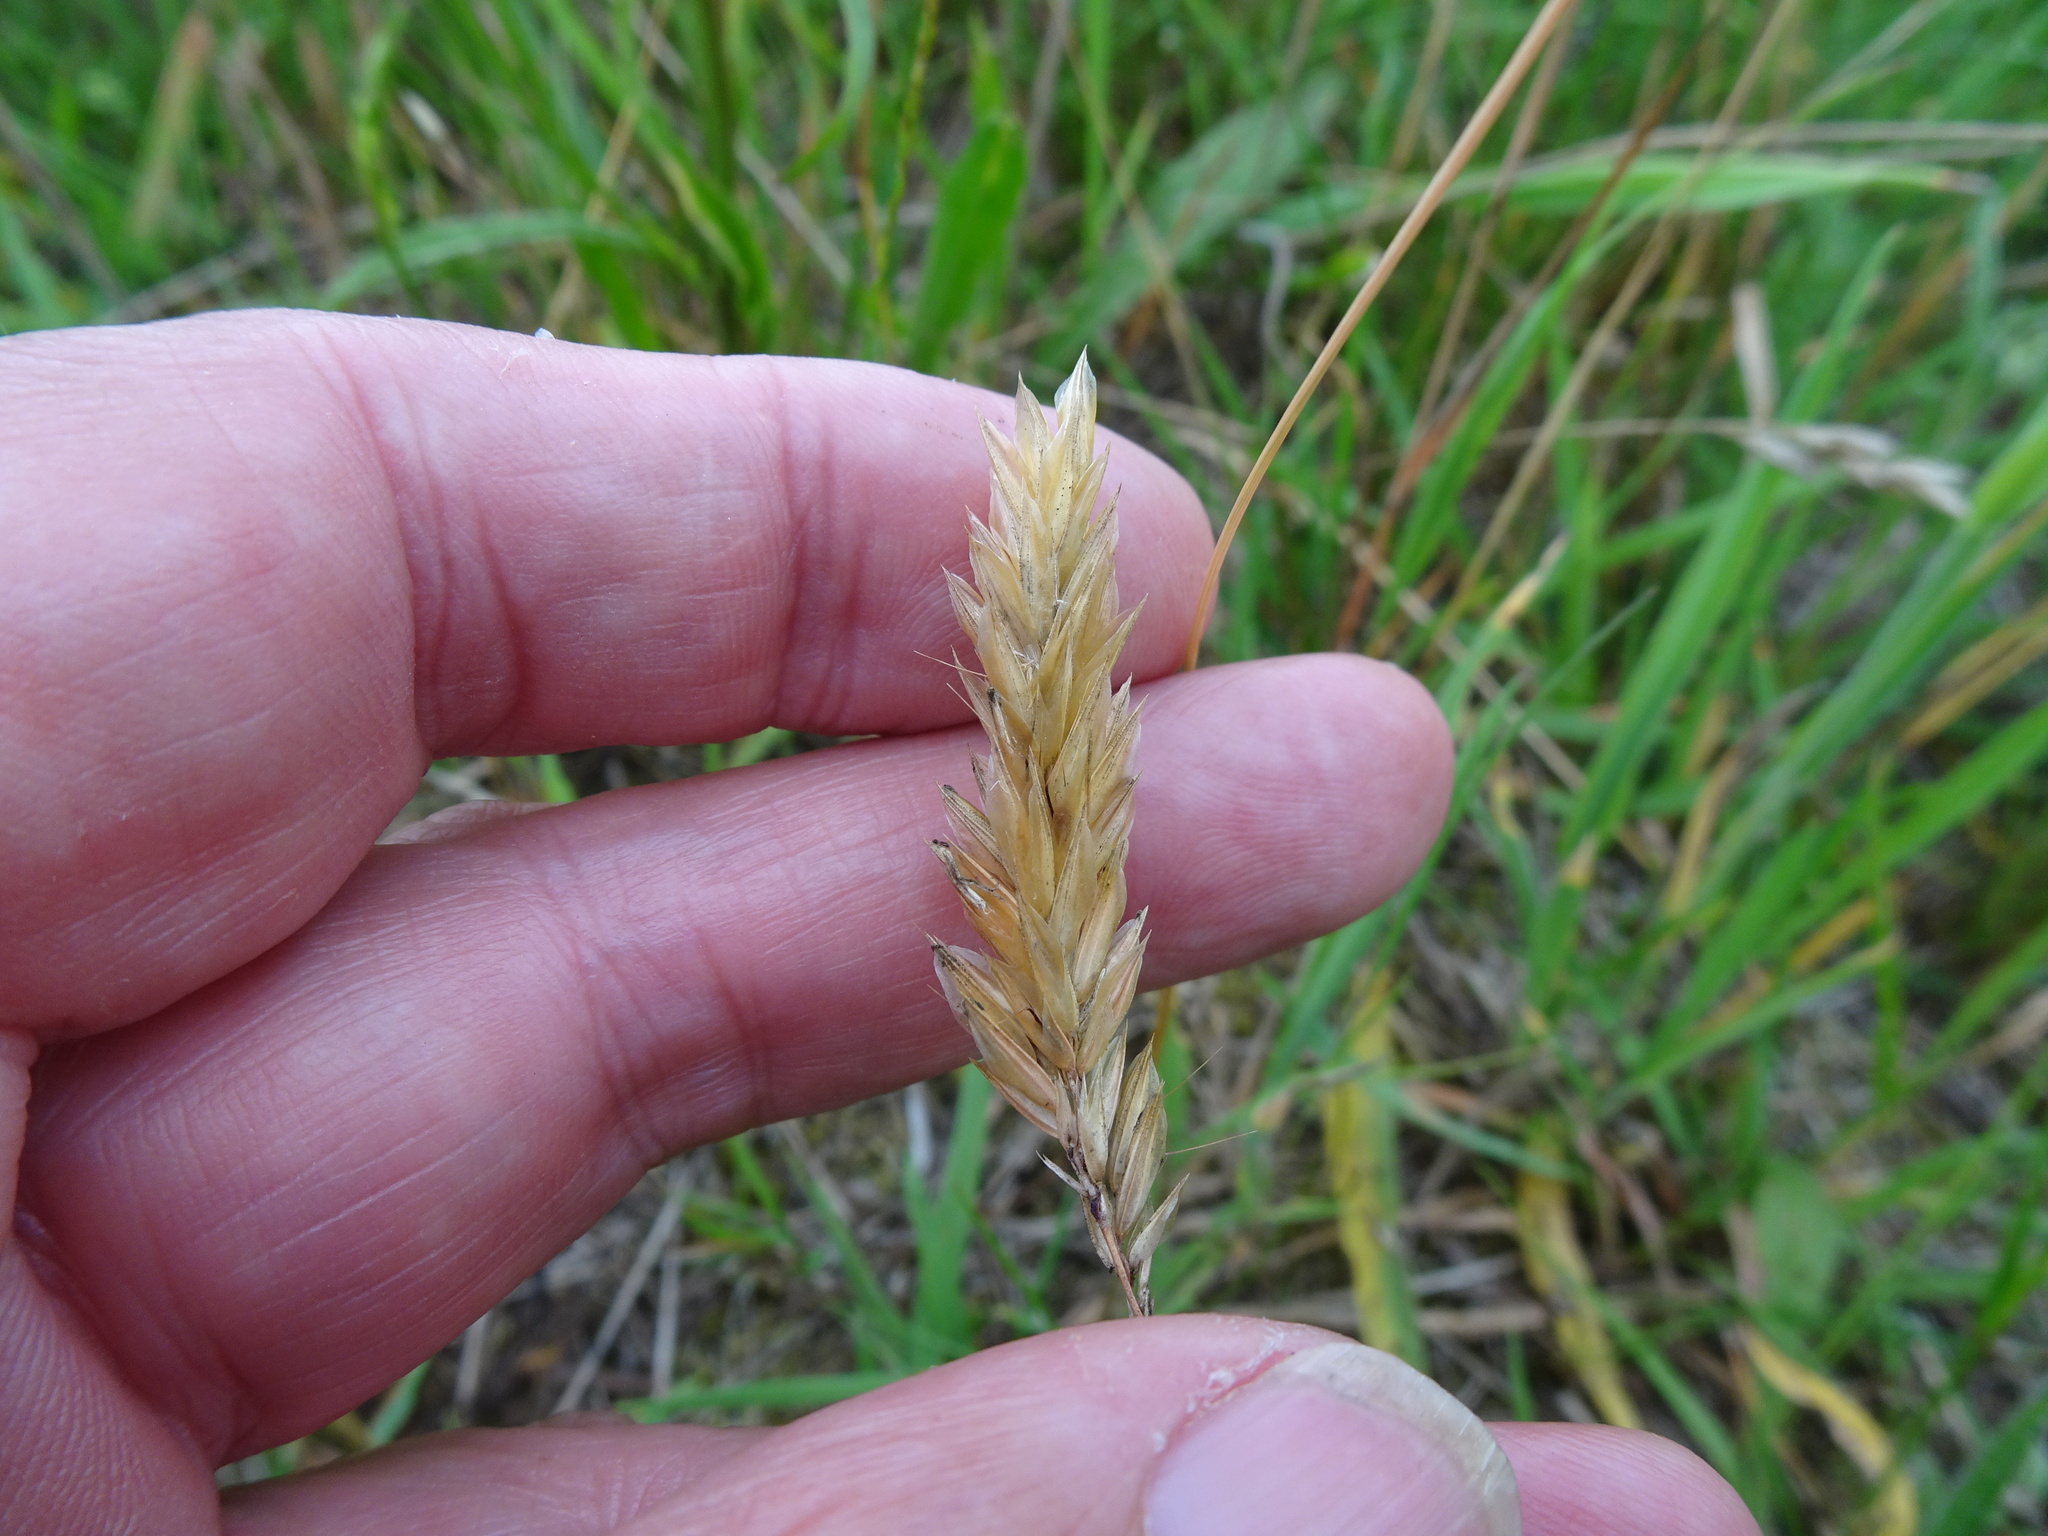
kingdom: Plantae
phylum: Tracheophyta
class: Liliopsida
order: Poales
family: Poaceae
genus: Anthoxanthum
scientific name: Anthoxanthum odoratum
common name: Sweet vernalgrass
